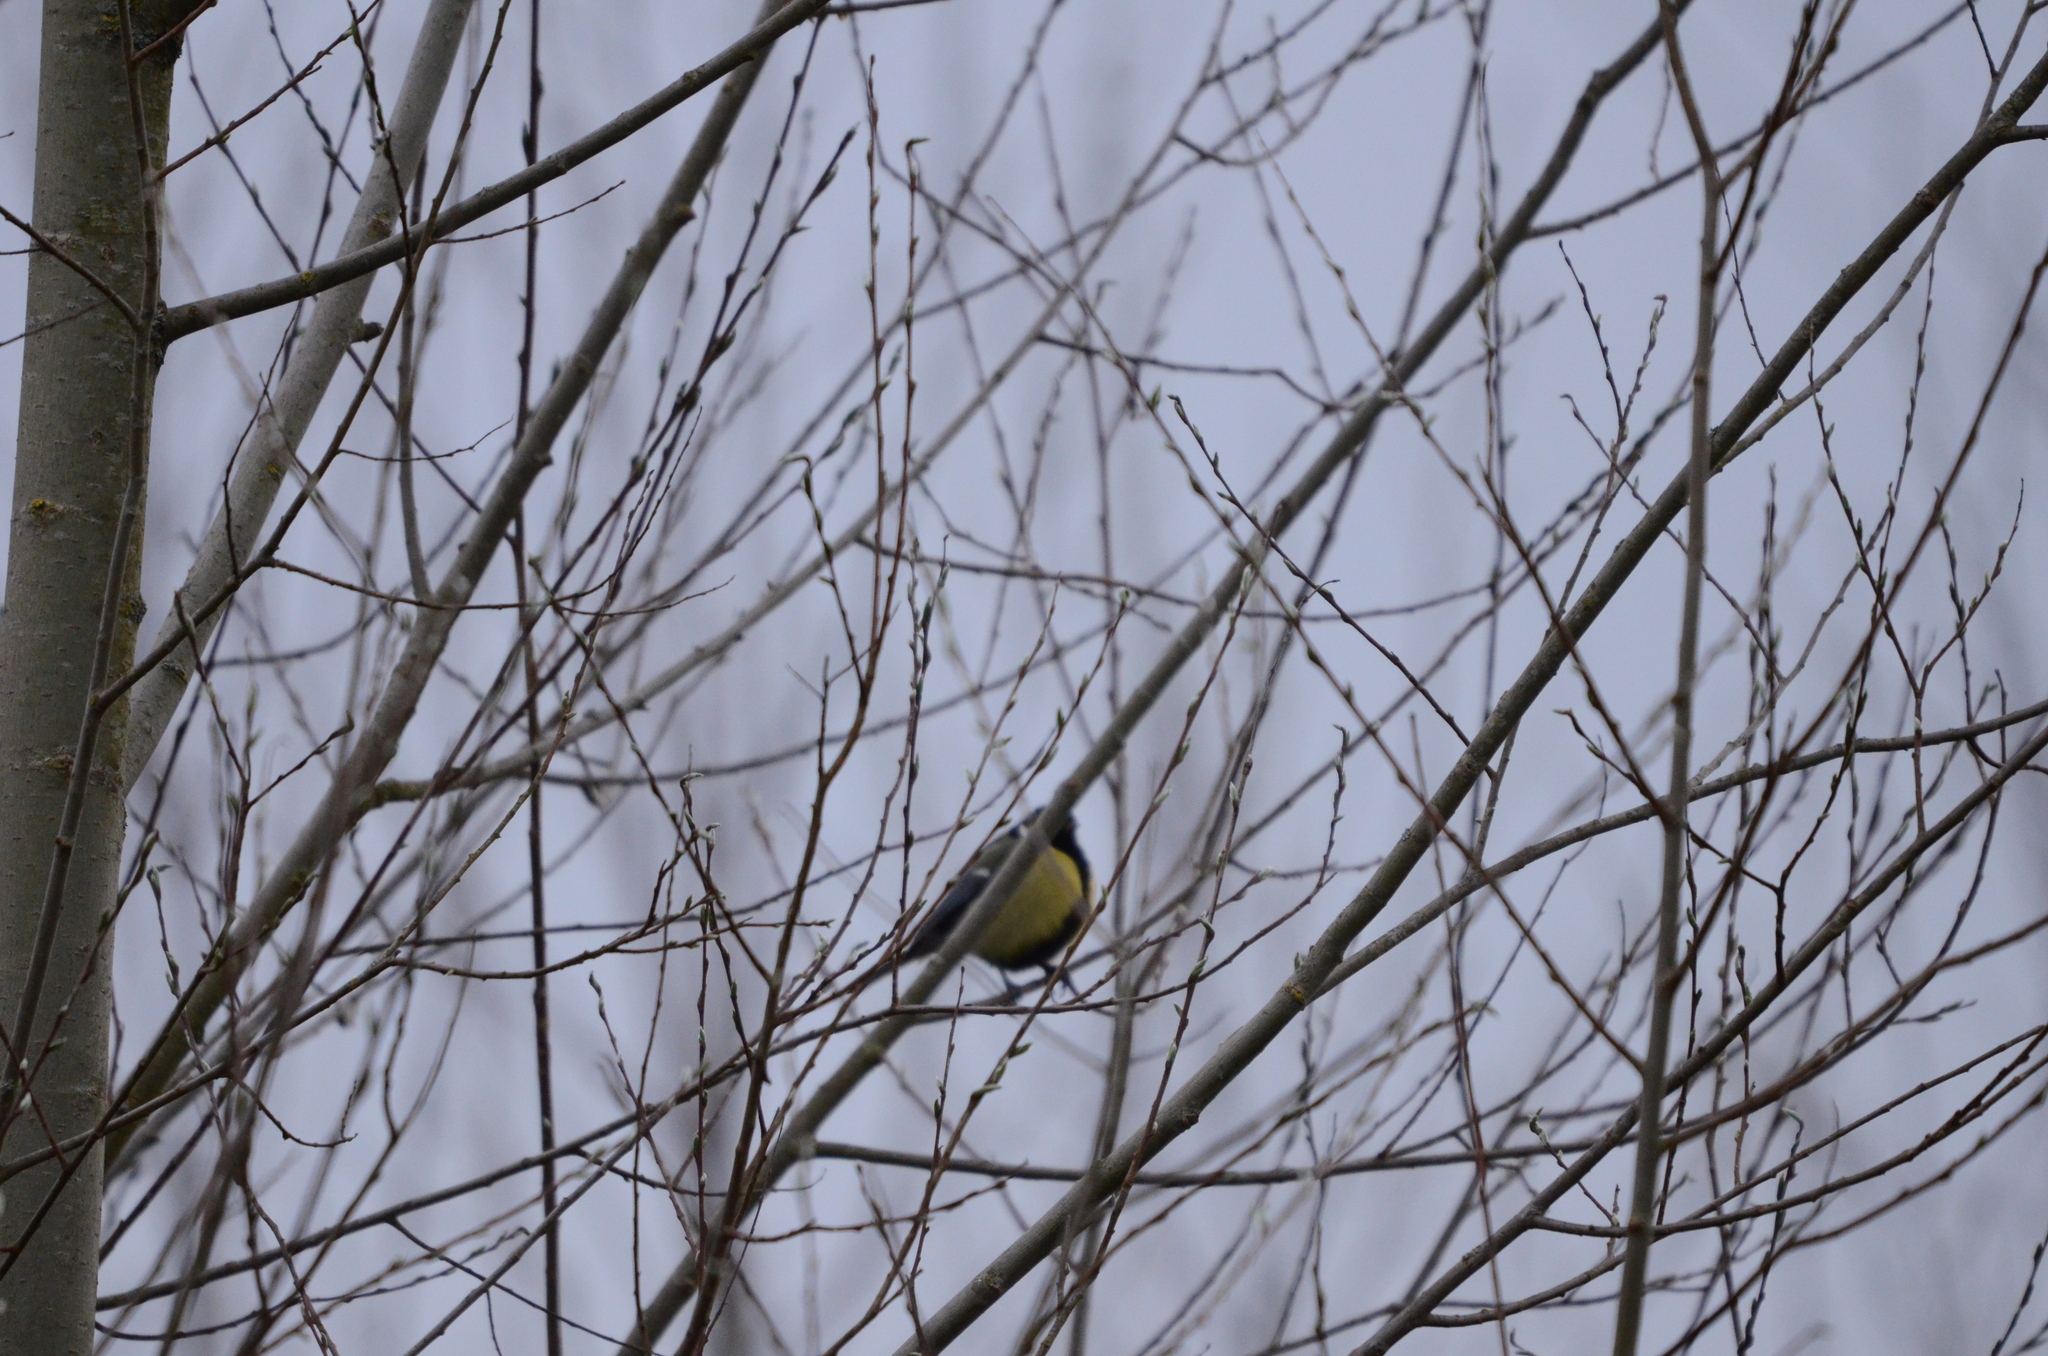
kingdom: Animalia
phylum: Chordata
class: Aves
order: Passeriformes
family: Paridae
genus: Parus
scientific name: Parus major
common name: Great tit
